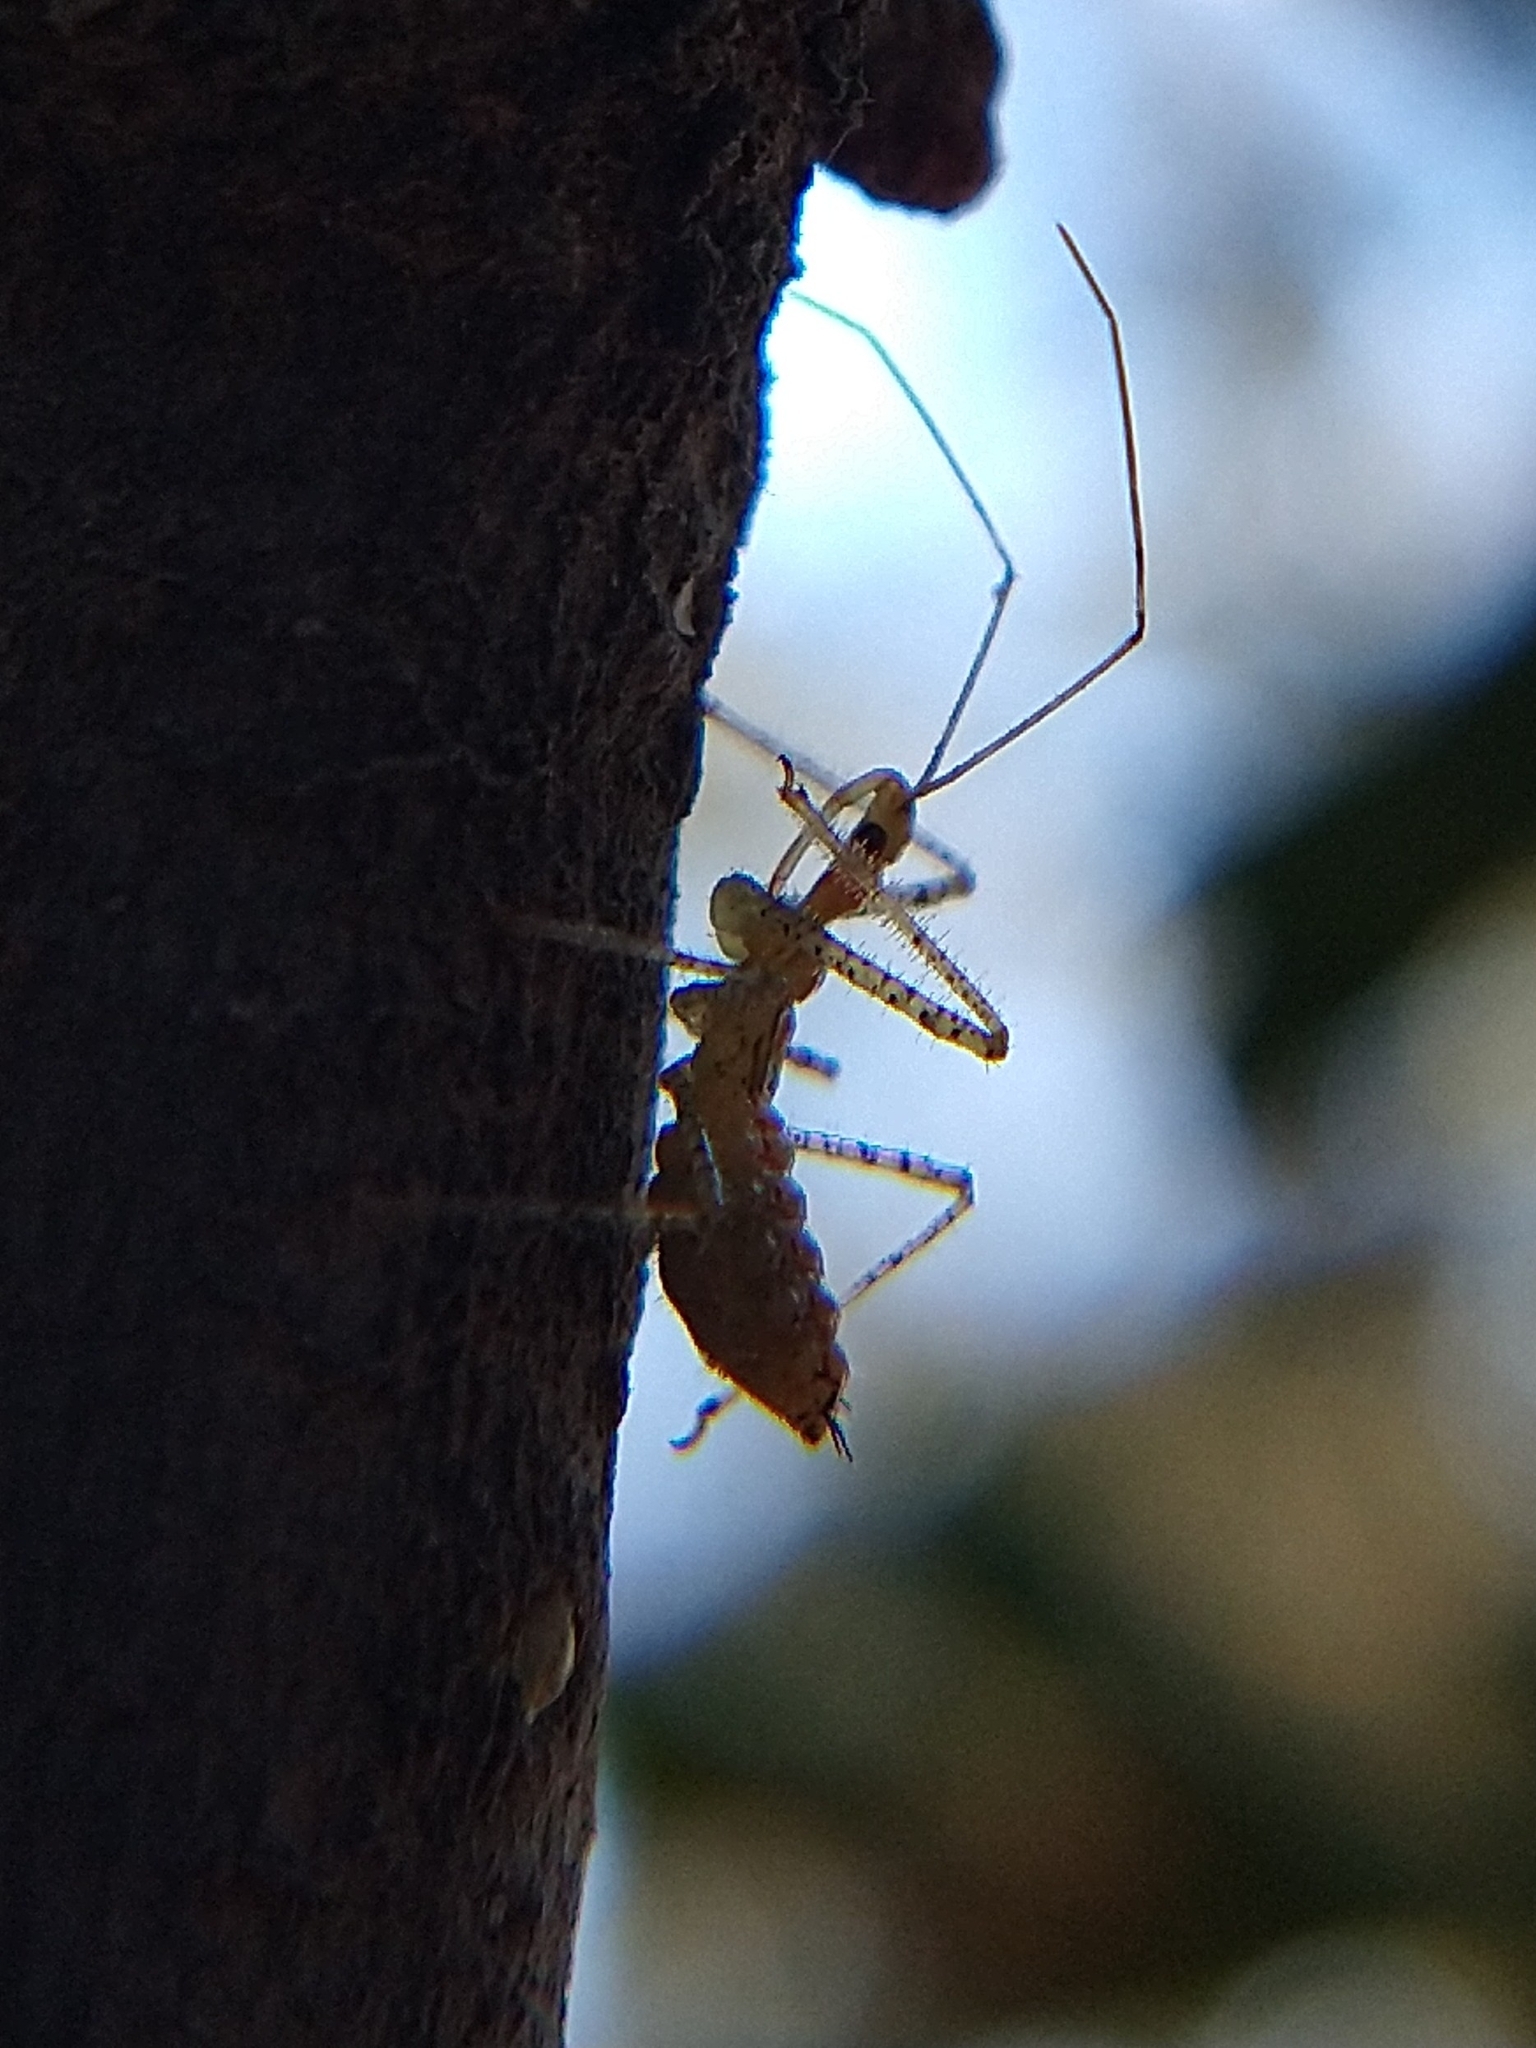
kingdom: Animalia
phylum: Arthropoda
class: Insecta
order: Hemiptera
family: Reduviidae
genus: Zelus
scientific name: Zelus renardii
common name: Assassin bug
